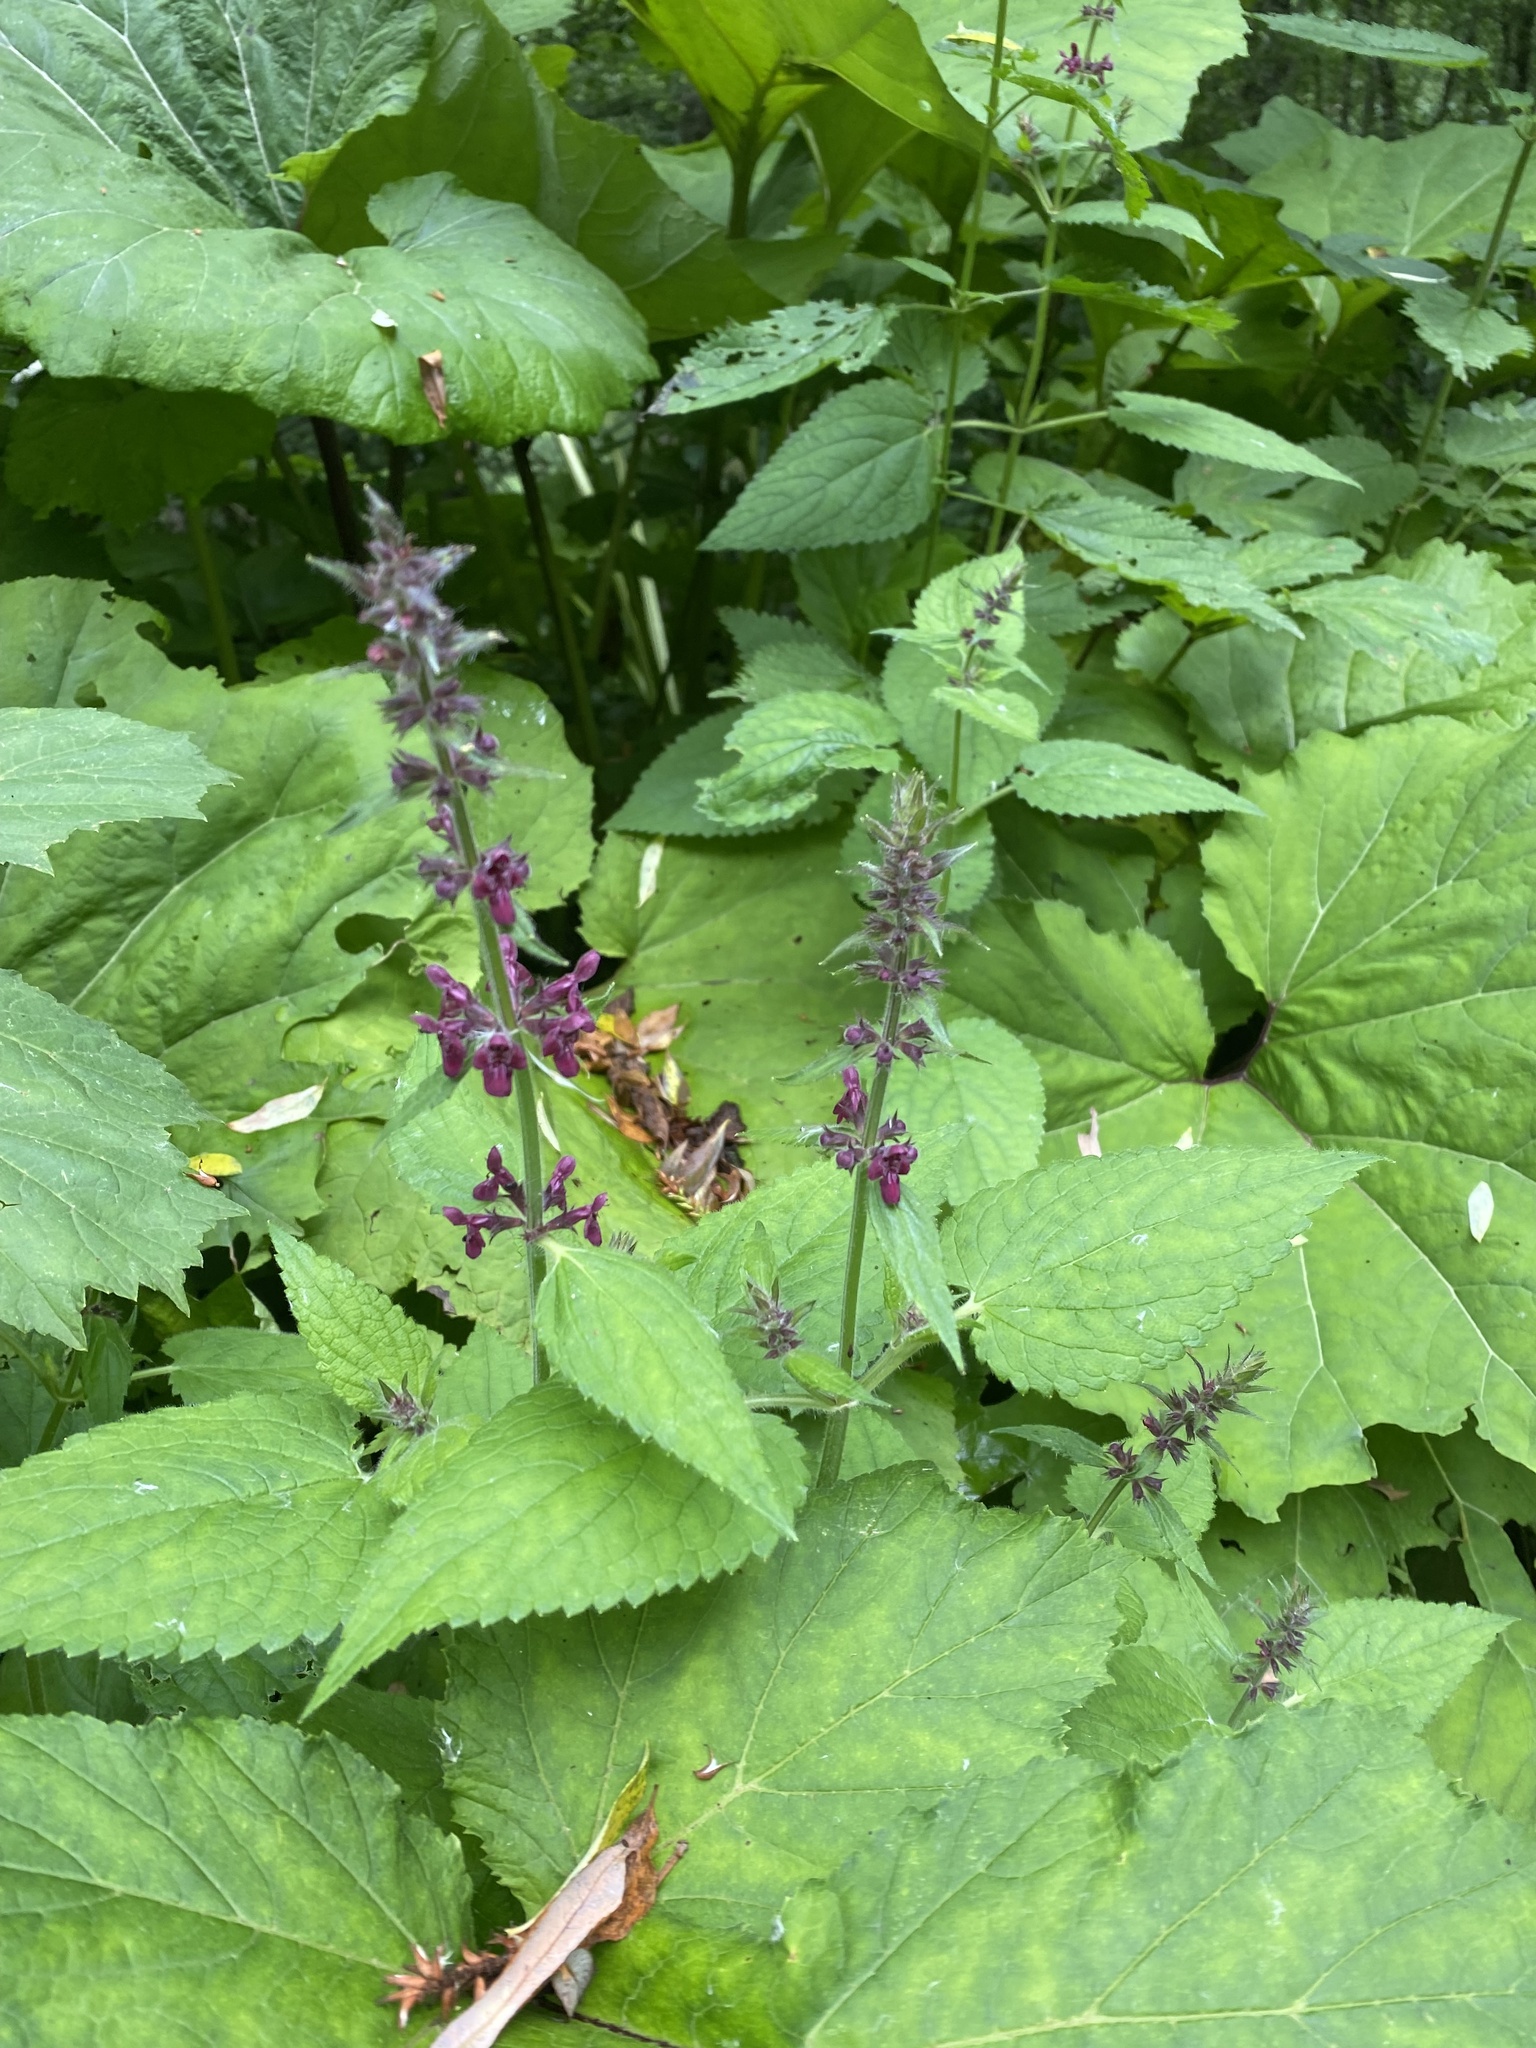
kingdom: Plantae
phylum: Tracheophyta
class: Magnoliopsida
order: Lamiales
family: Lamiaceae
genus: Stachys
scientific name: Stachys sylvatica
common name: Hedge woundwort
